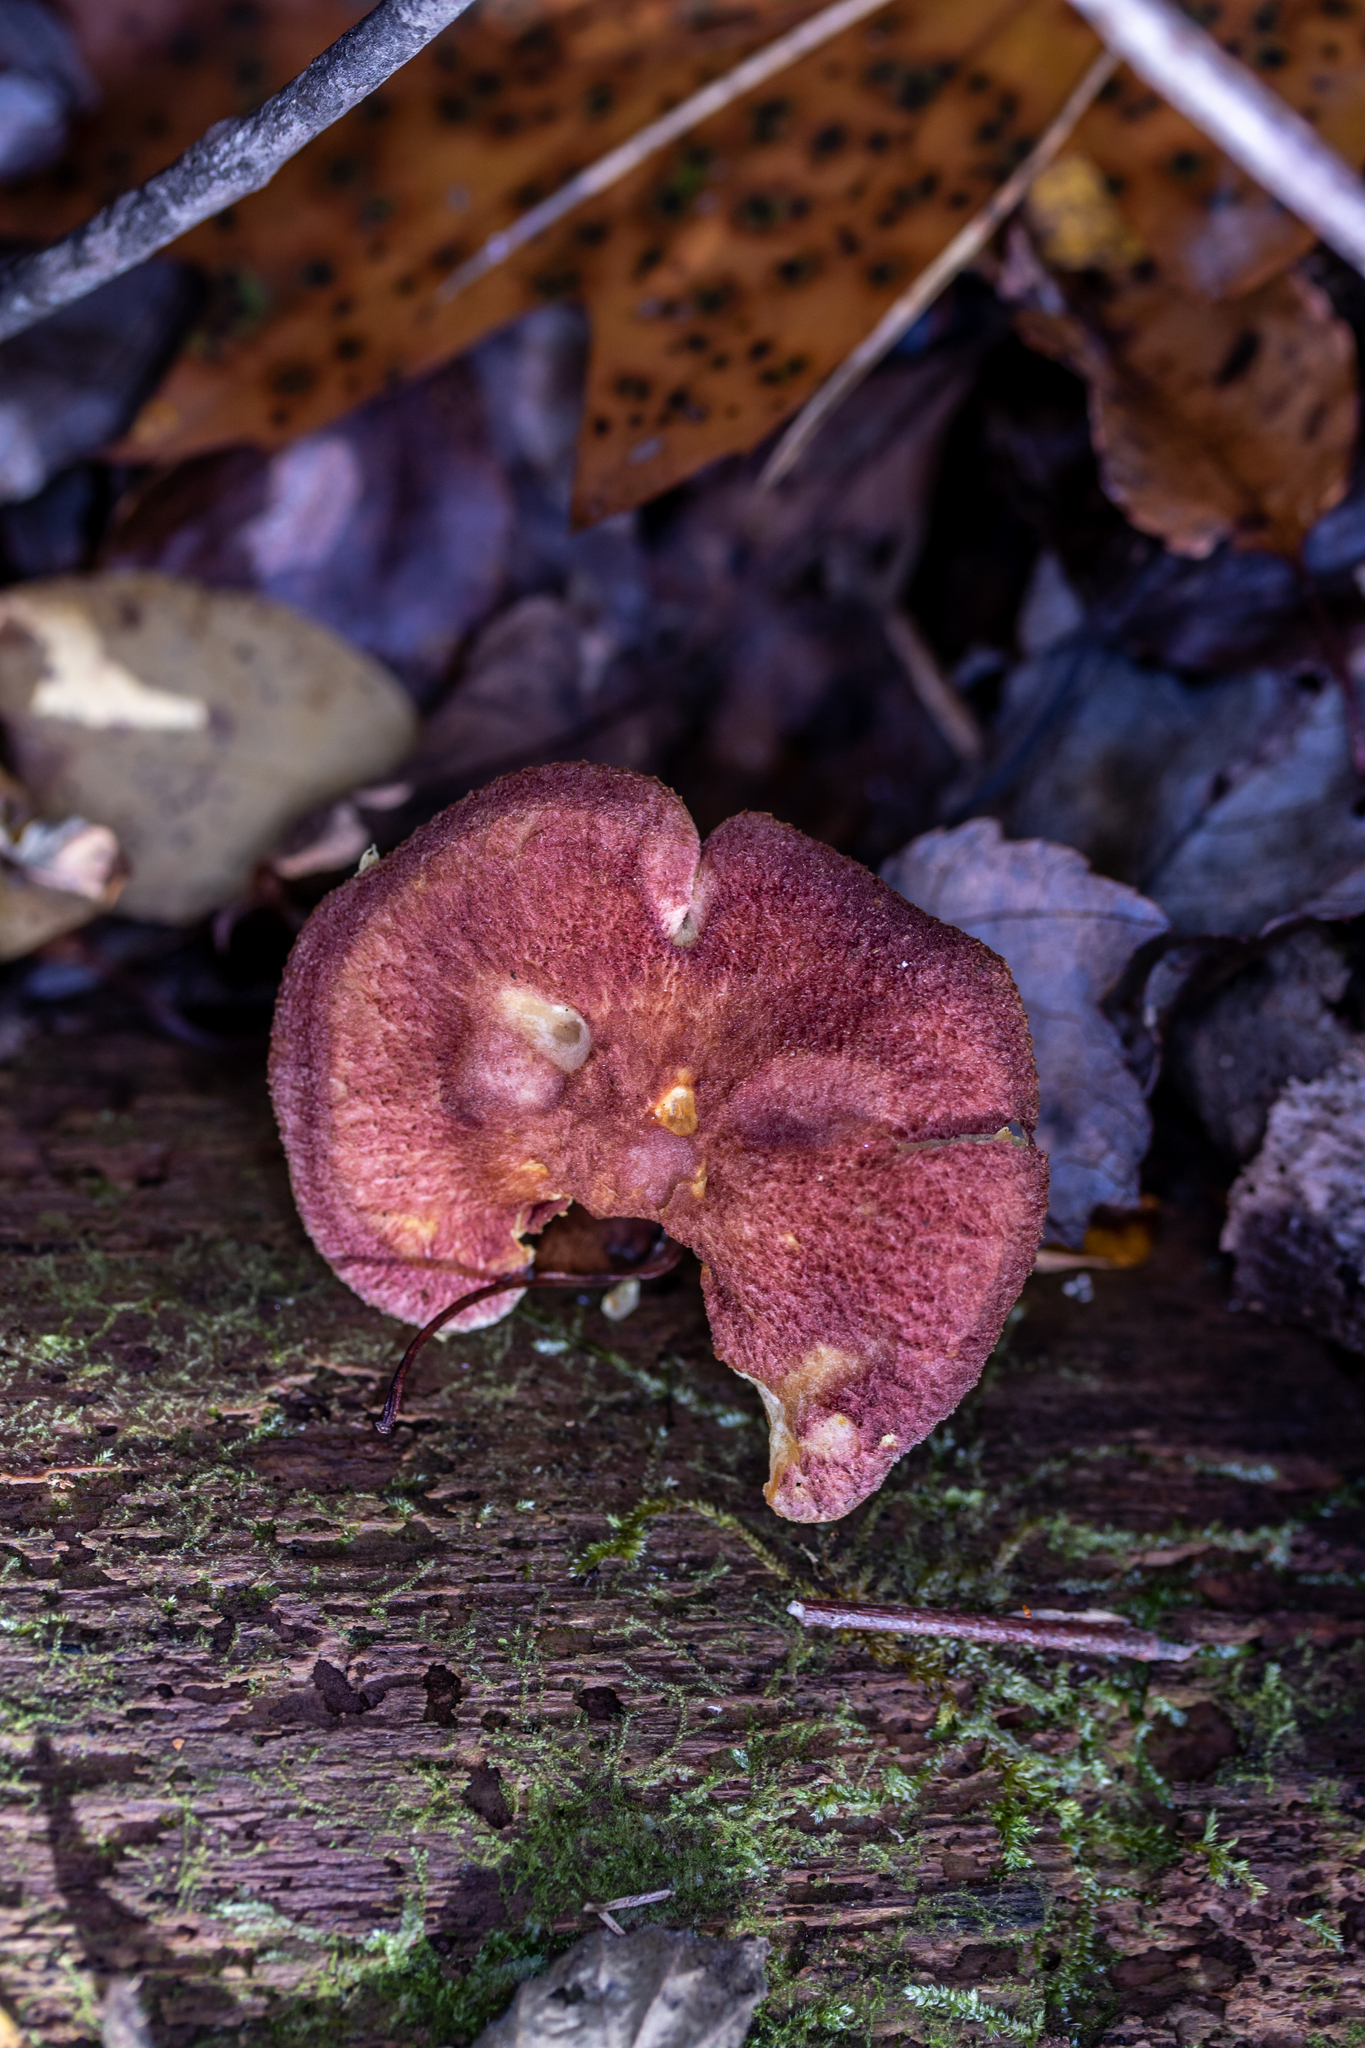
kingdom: Fungi
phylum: Basidiomycota
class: Agaricomycetes
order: Agaricales
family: Tricholomataceae
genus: Tricholomopsis
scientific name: Tricholomopsis rutilans
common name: Plums and custard
